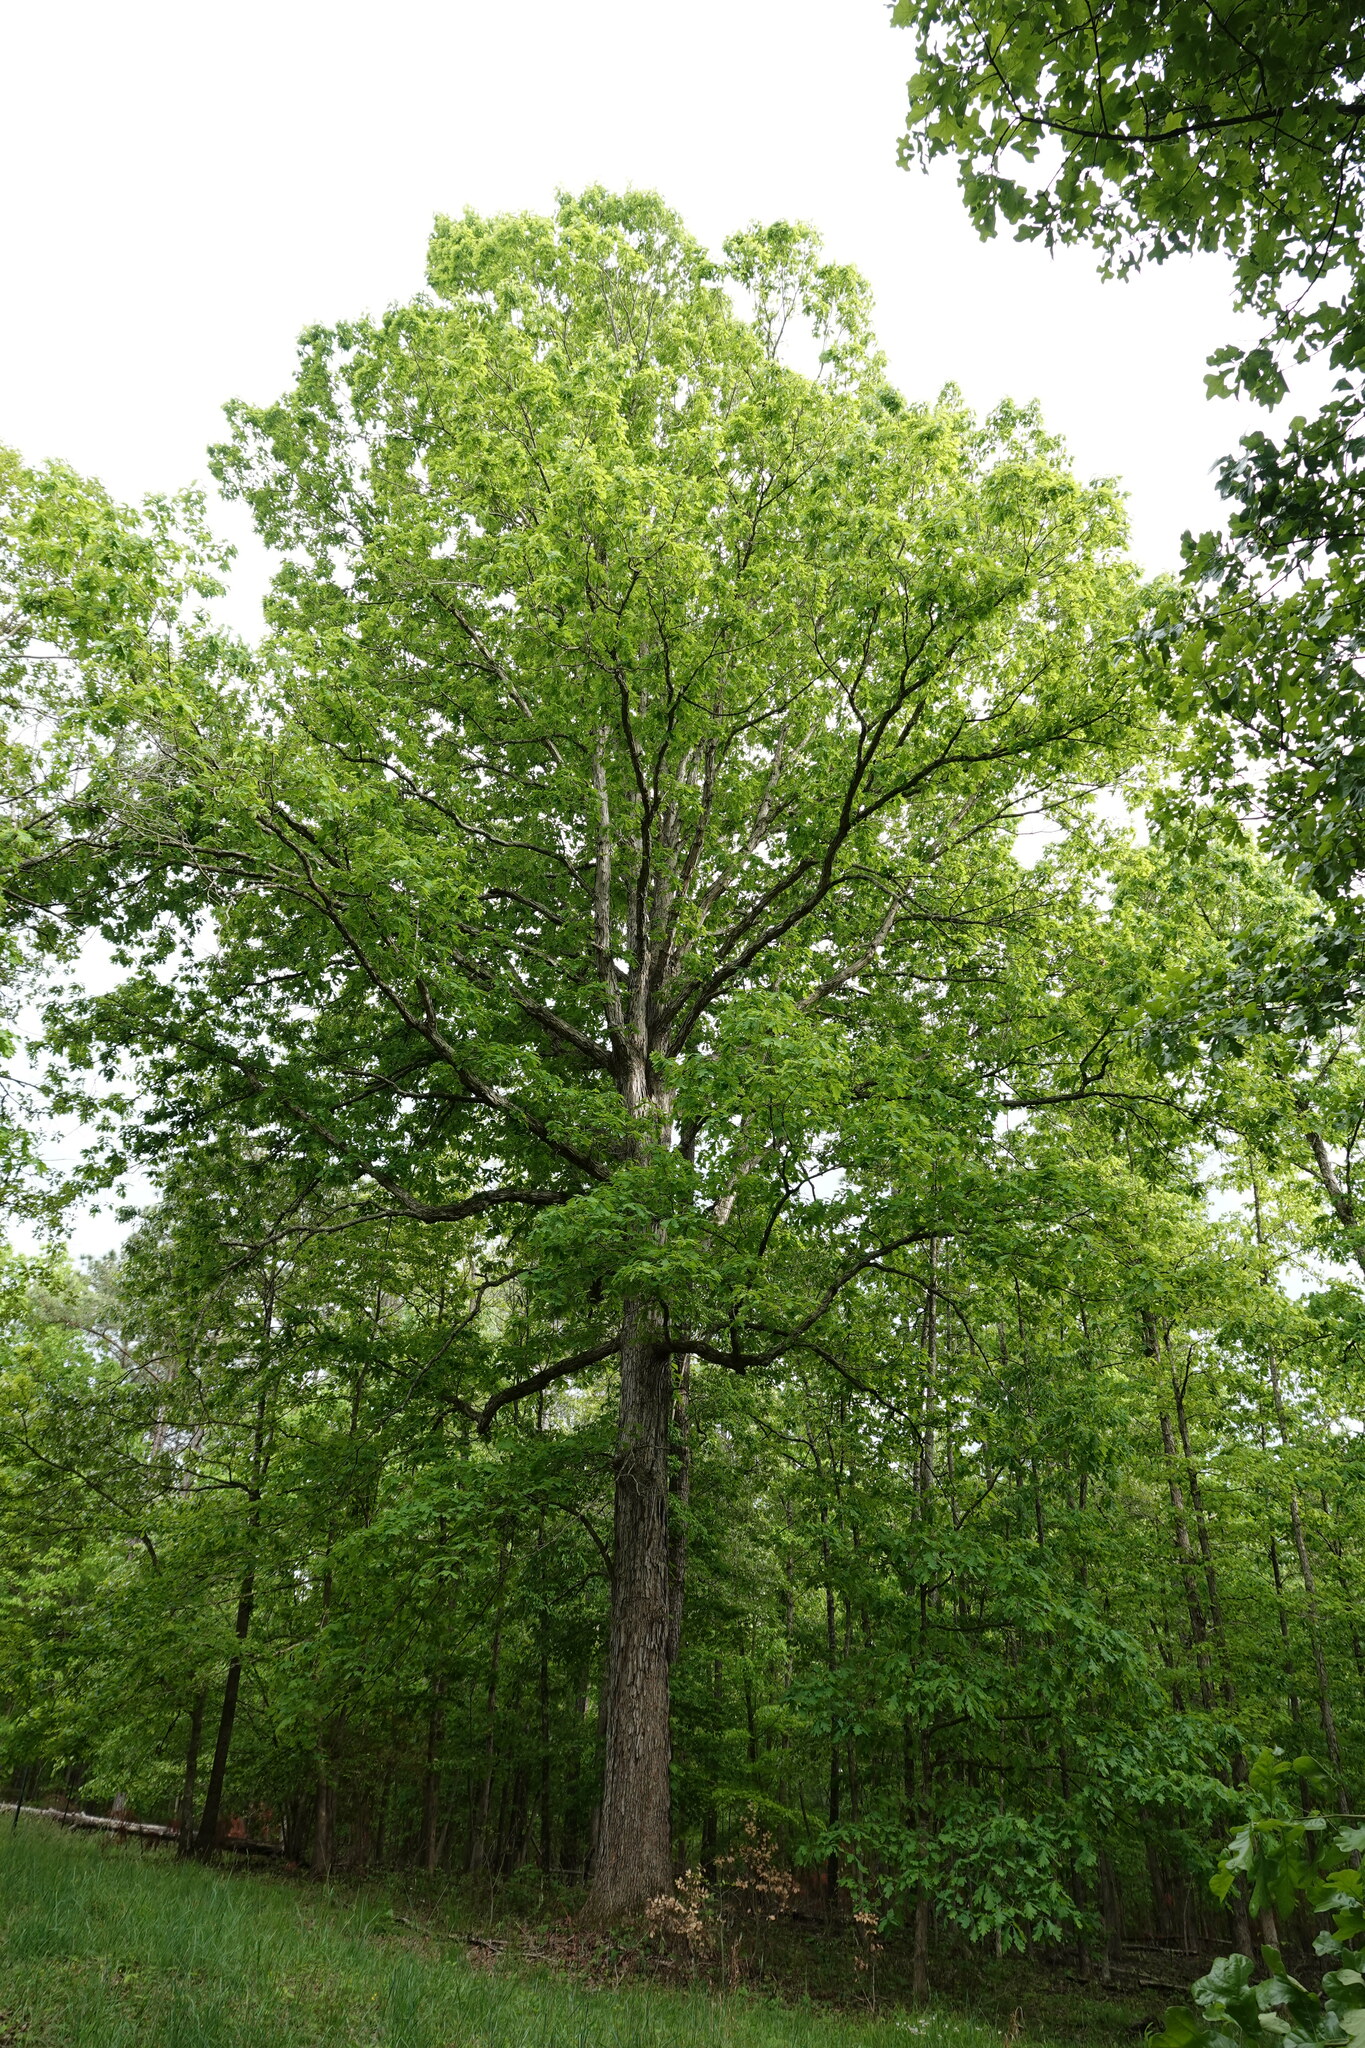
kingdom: Plantae
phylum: Tracheophyta
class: Magnoliopsida
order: Fagales
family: Fagaceae
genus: Quercus
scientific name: Quercus alba
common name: White oak
